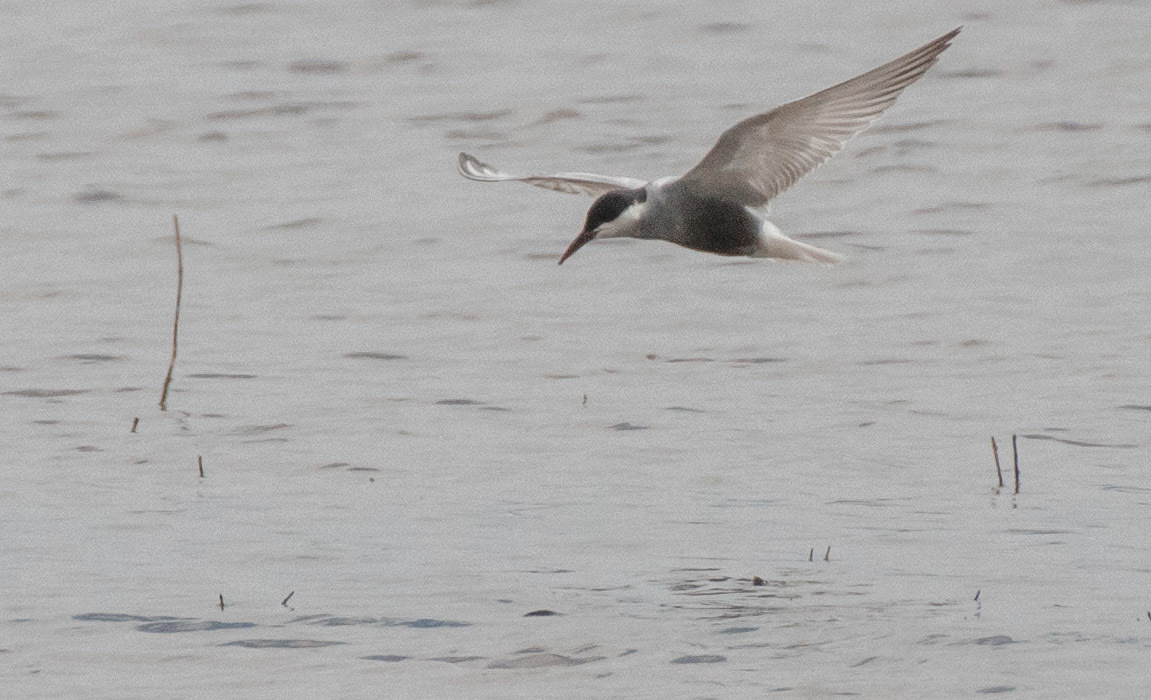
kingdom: Animalia
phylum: Chordata
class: Aves
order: Charadriiformes
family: Laridae
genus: Chlidonias
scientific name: Chlidonias hybrida
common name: Whiskered tern
